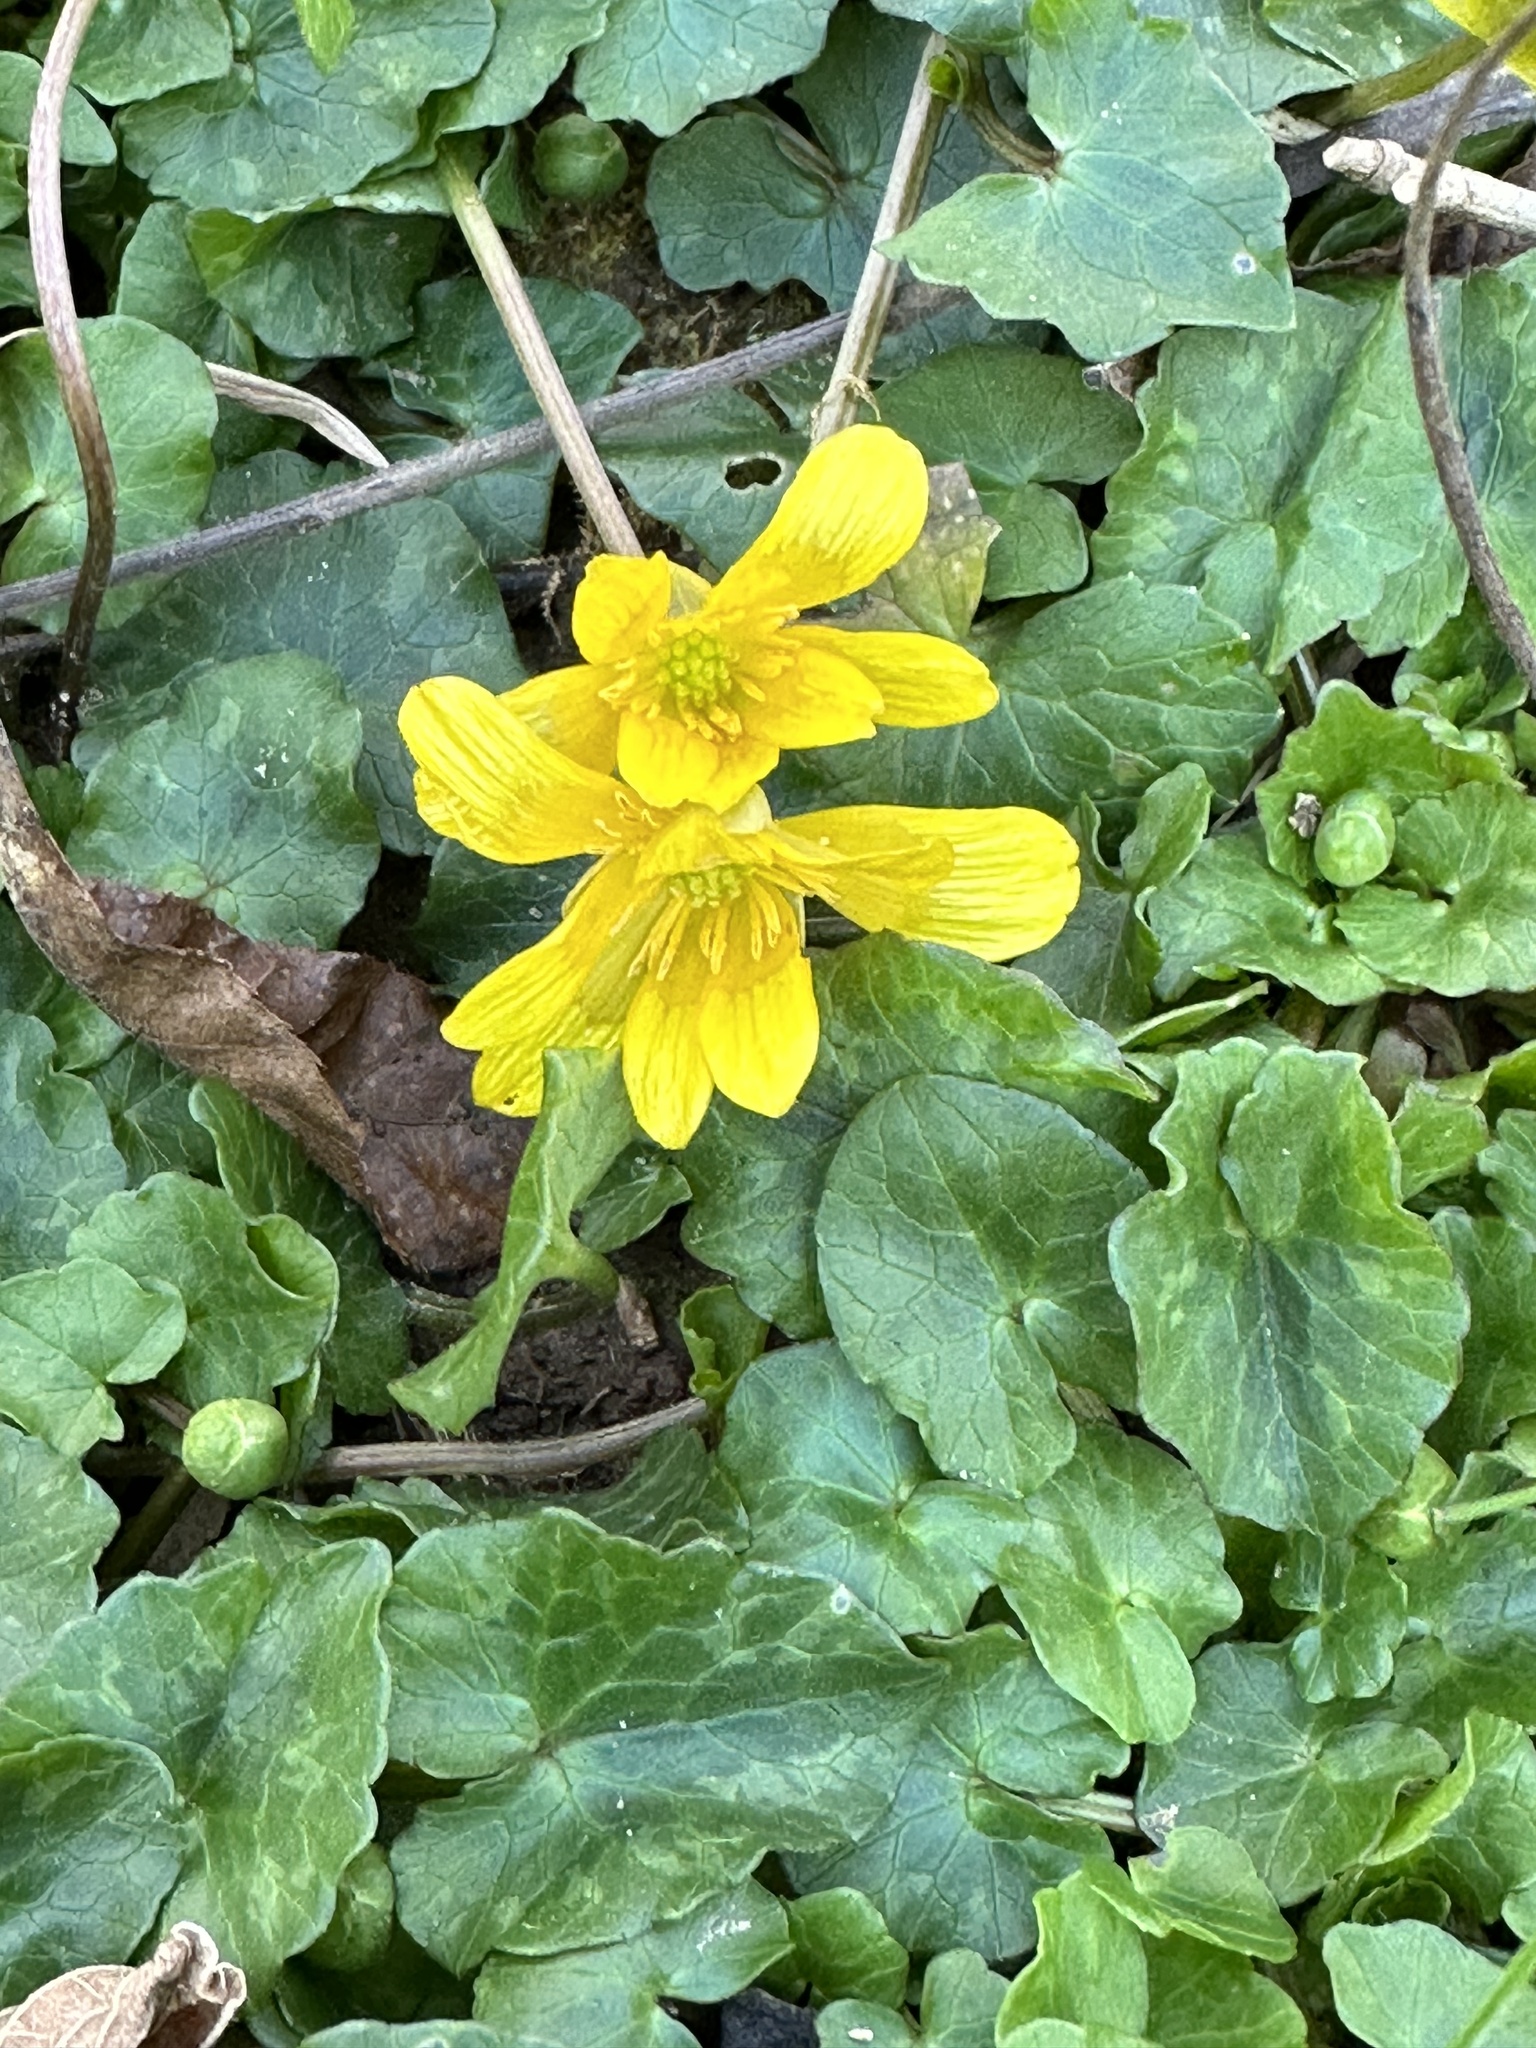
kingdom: Plantae
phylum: Tracheophyta
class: Magnoliopsida
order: Ranunculales
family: Ranunculaceae
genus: Ficaria
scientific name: Ficaria verna
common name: Lesser celandine
